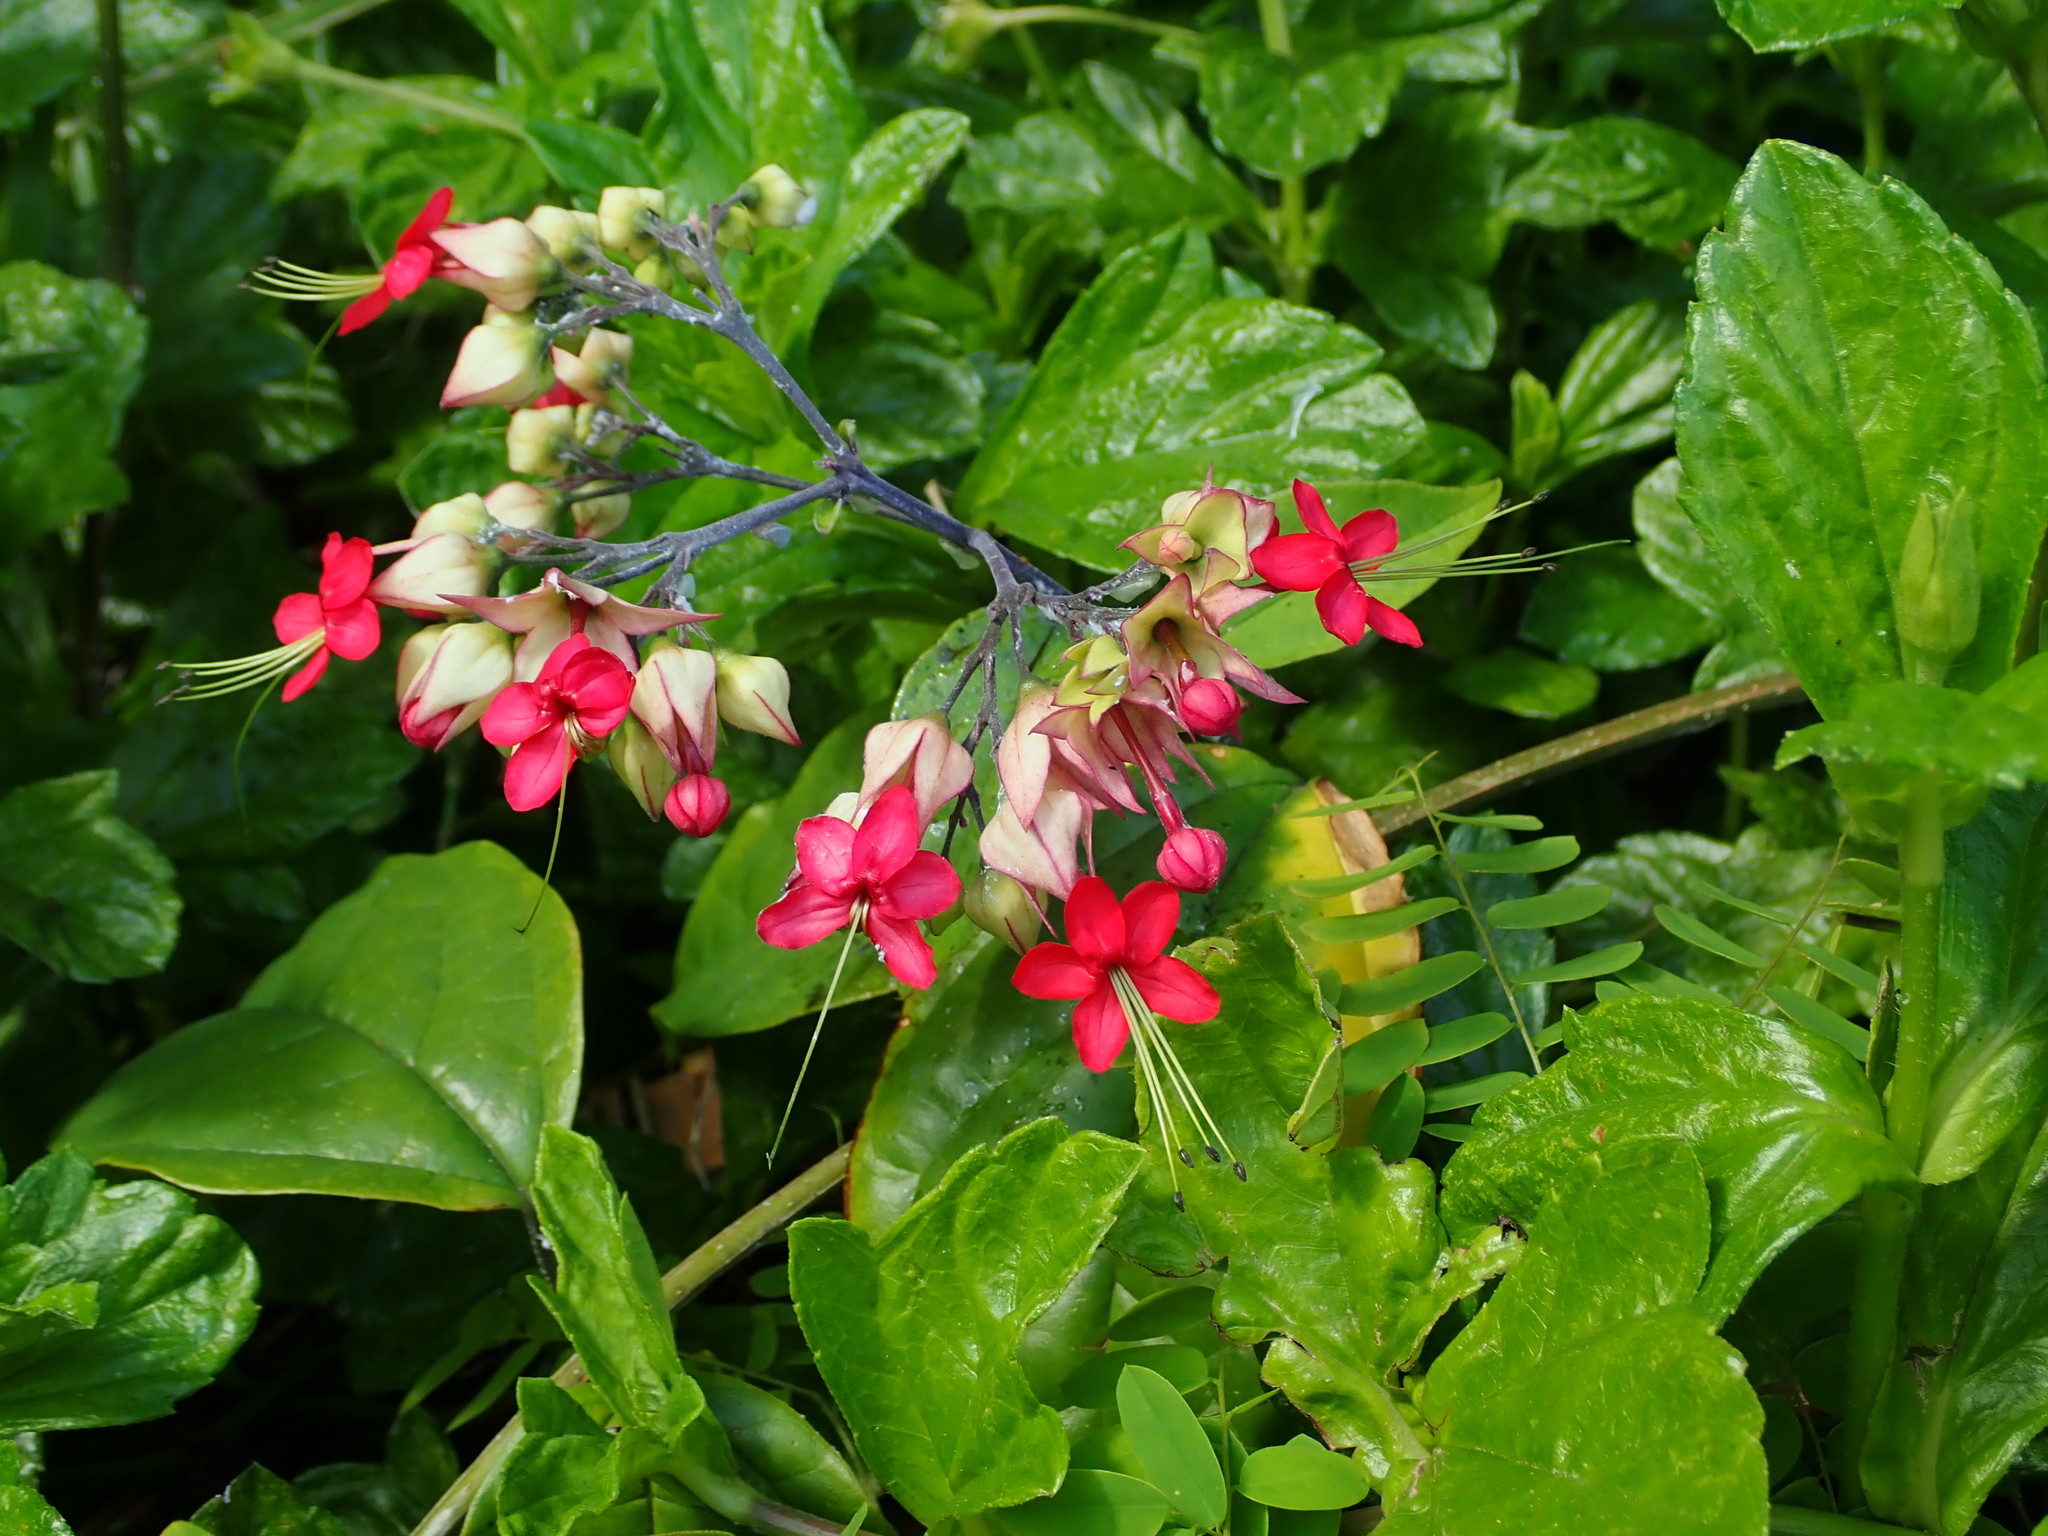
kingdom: Plantae
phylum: Tracheophyta
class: Magnoliopsida
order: Lamiales
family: Lamiaceae
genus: Clerodendrum
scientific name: Clerodendrum speciosum
